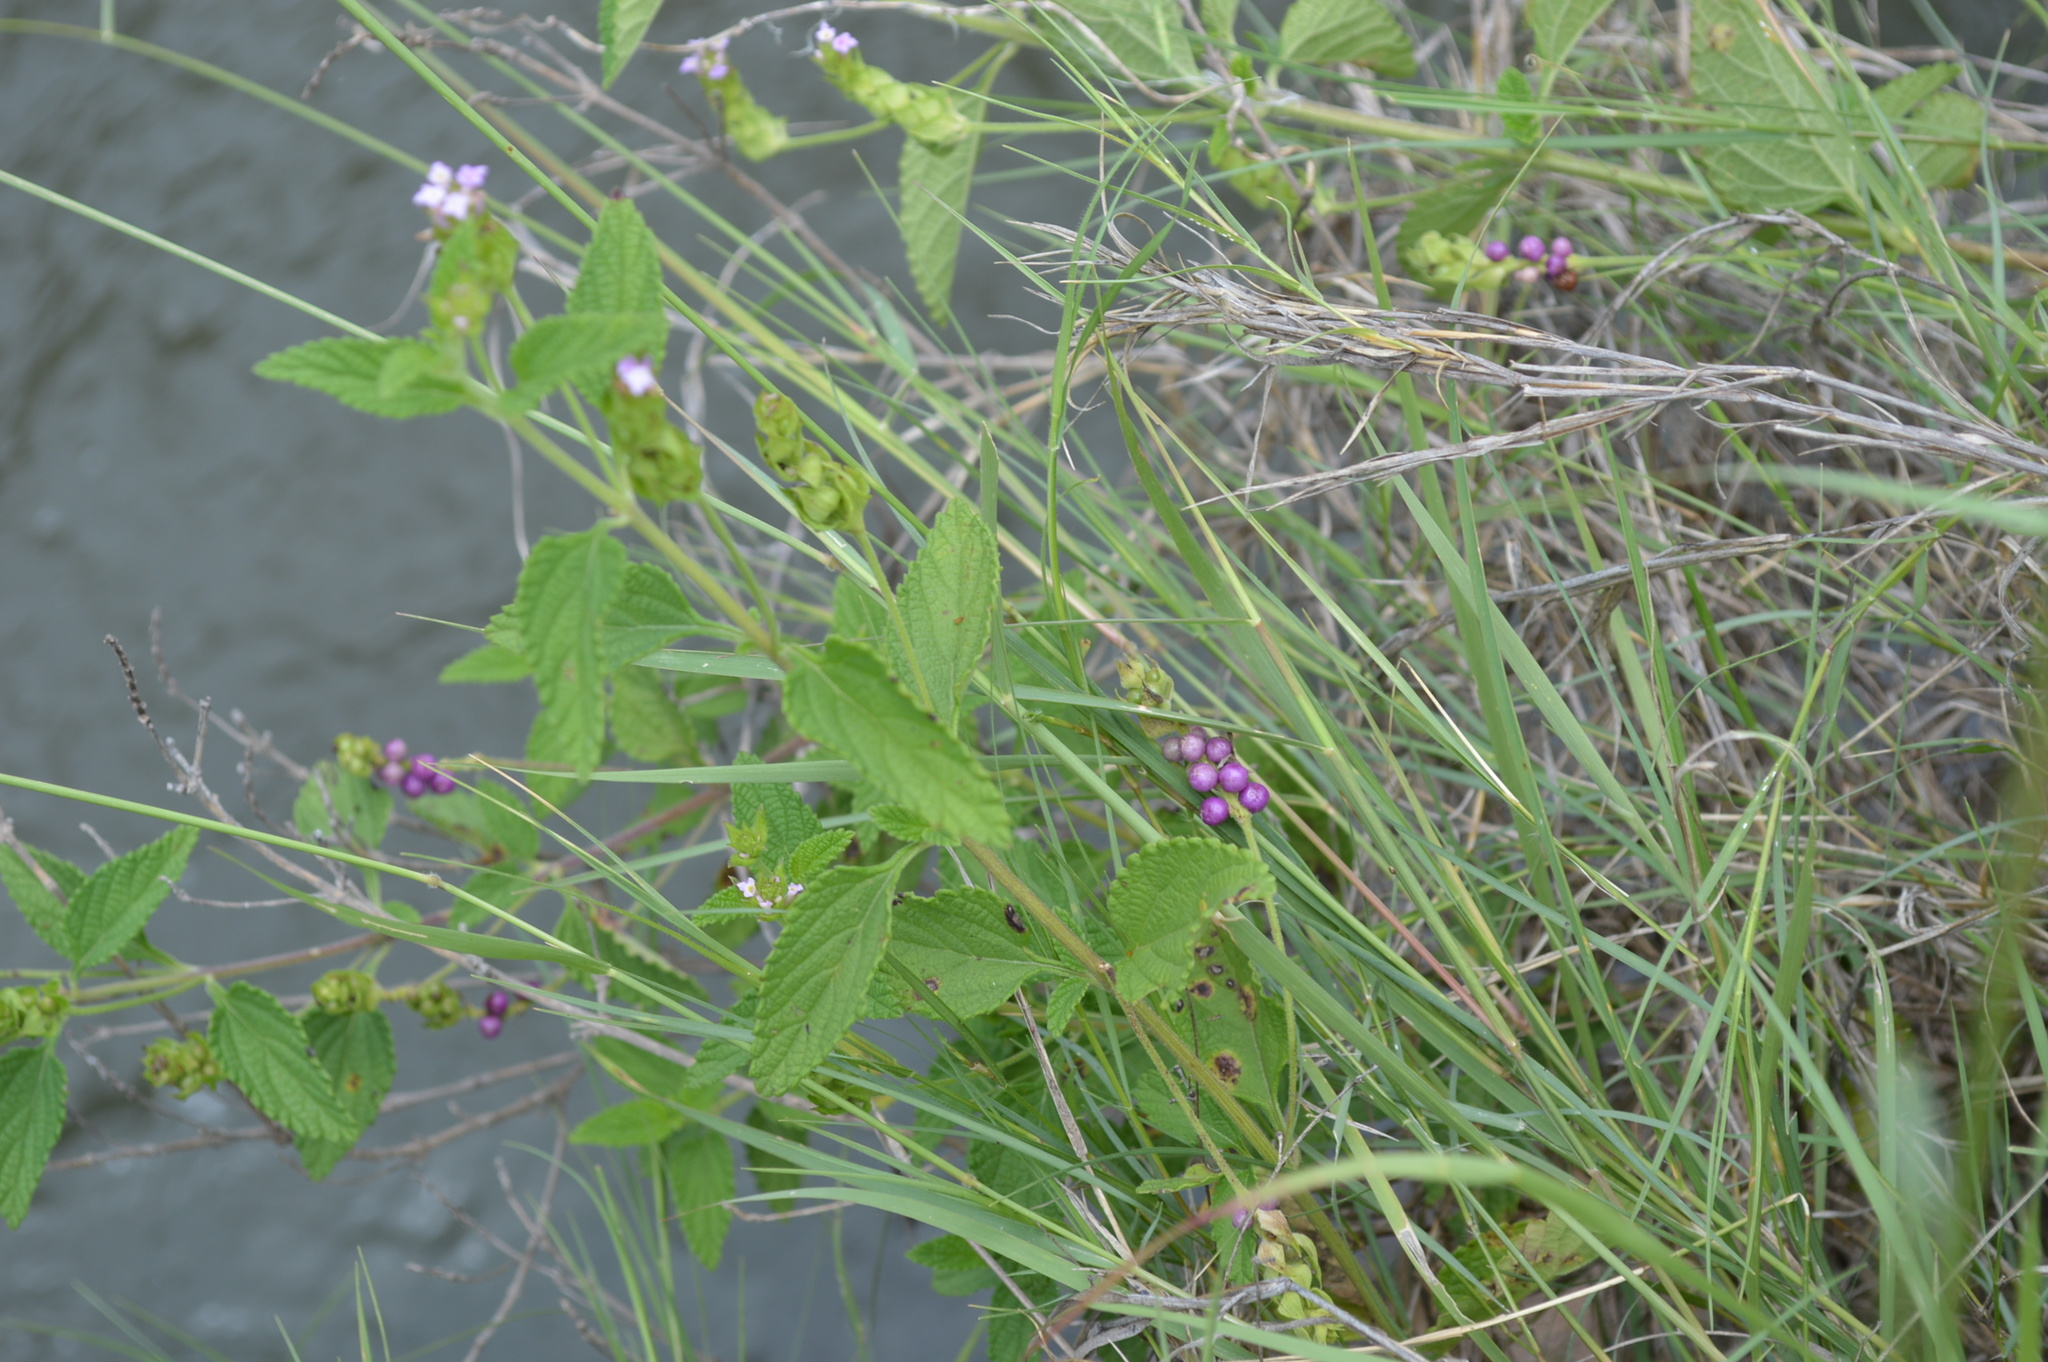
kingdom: Plantae
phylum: Tracheophyta
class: Magnoliopsida
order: Lamiales
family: Verbenaceae
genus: Lantana
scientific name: Lantana rugosa
